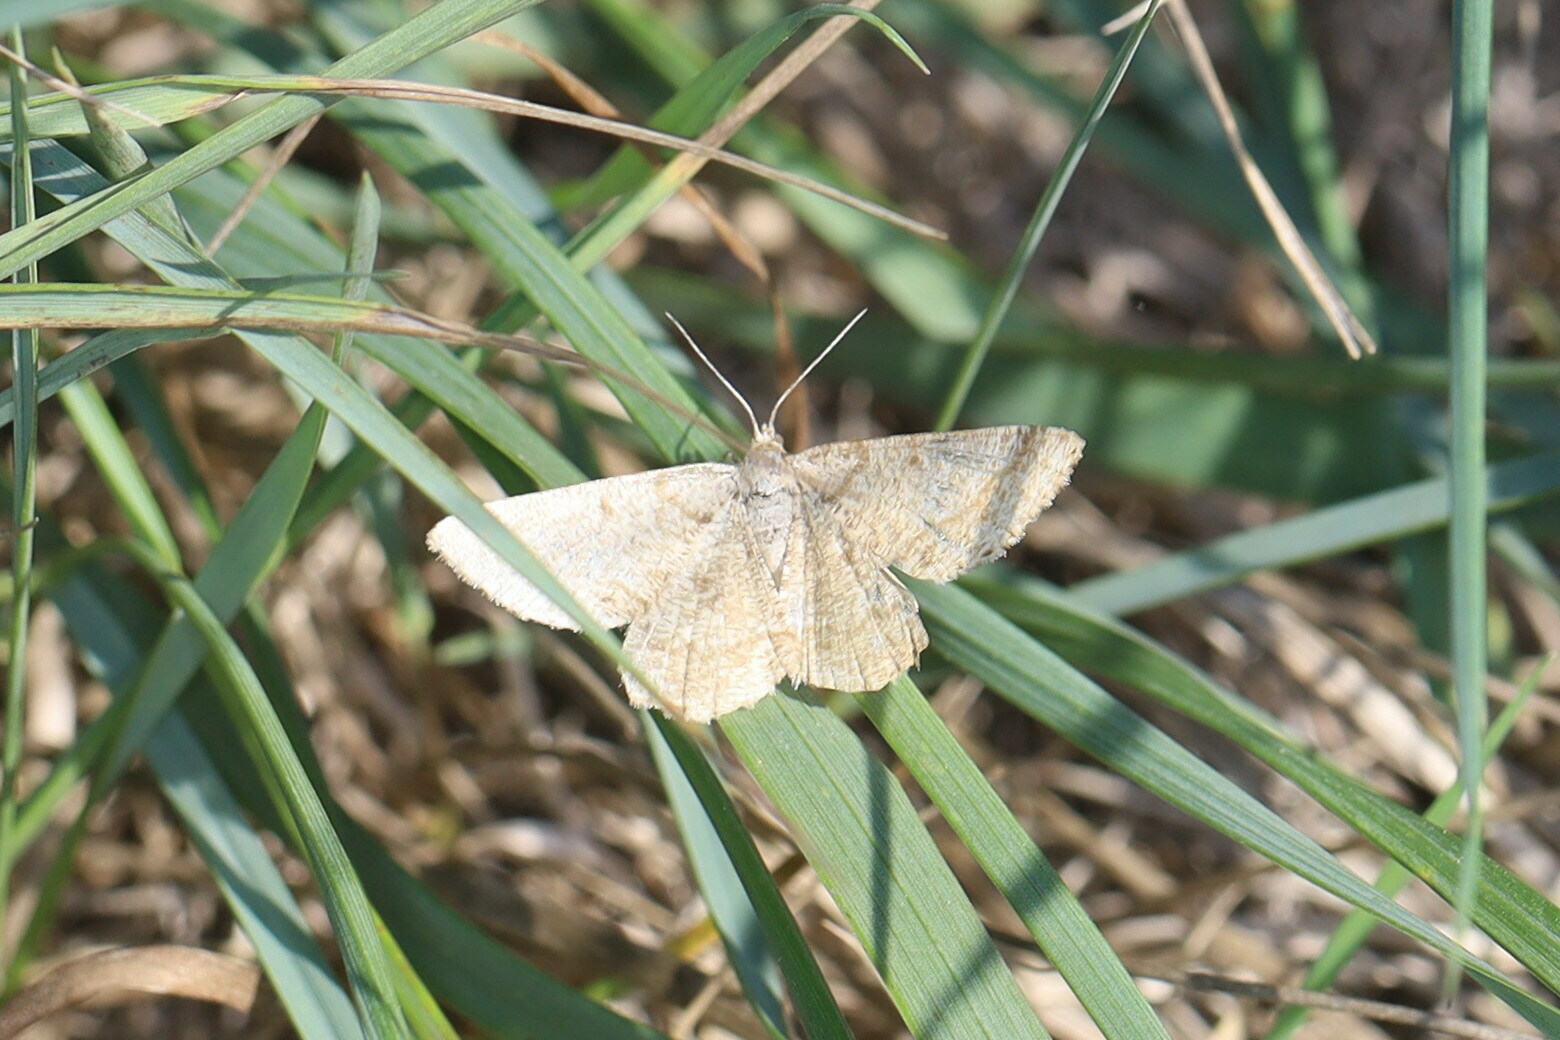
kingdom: Animalia
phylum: Arthropoda
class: Insecta
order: Lepidoptera
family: Geometridae
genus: Tephrina
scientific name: Tephrina murinaria
